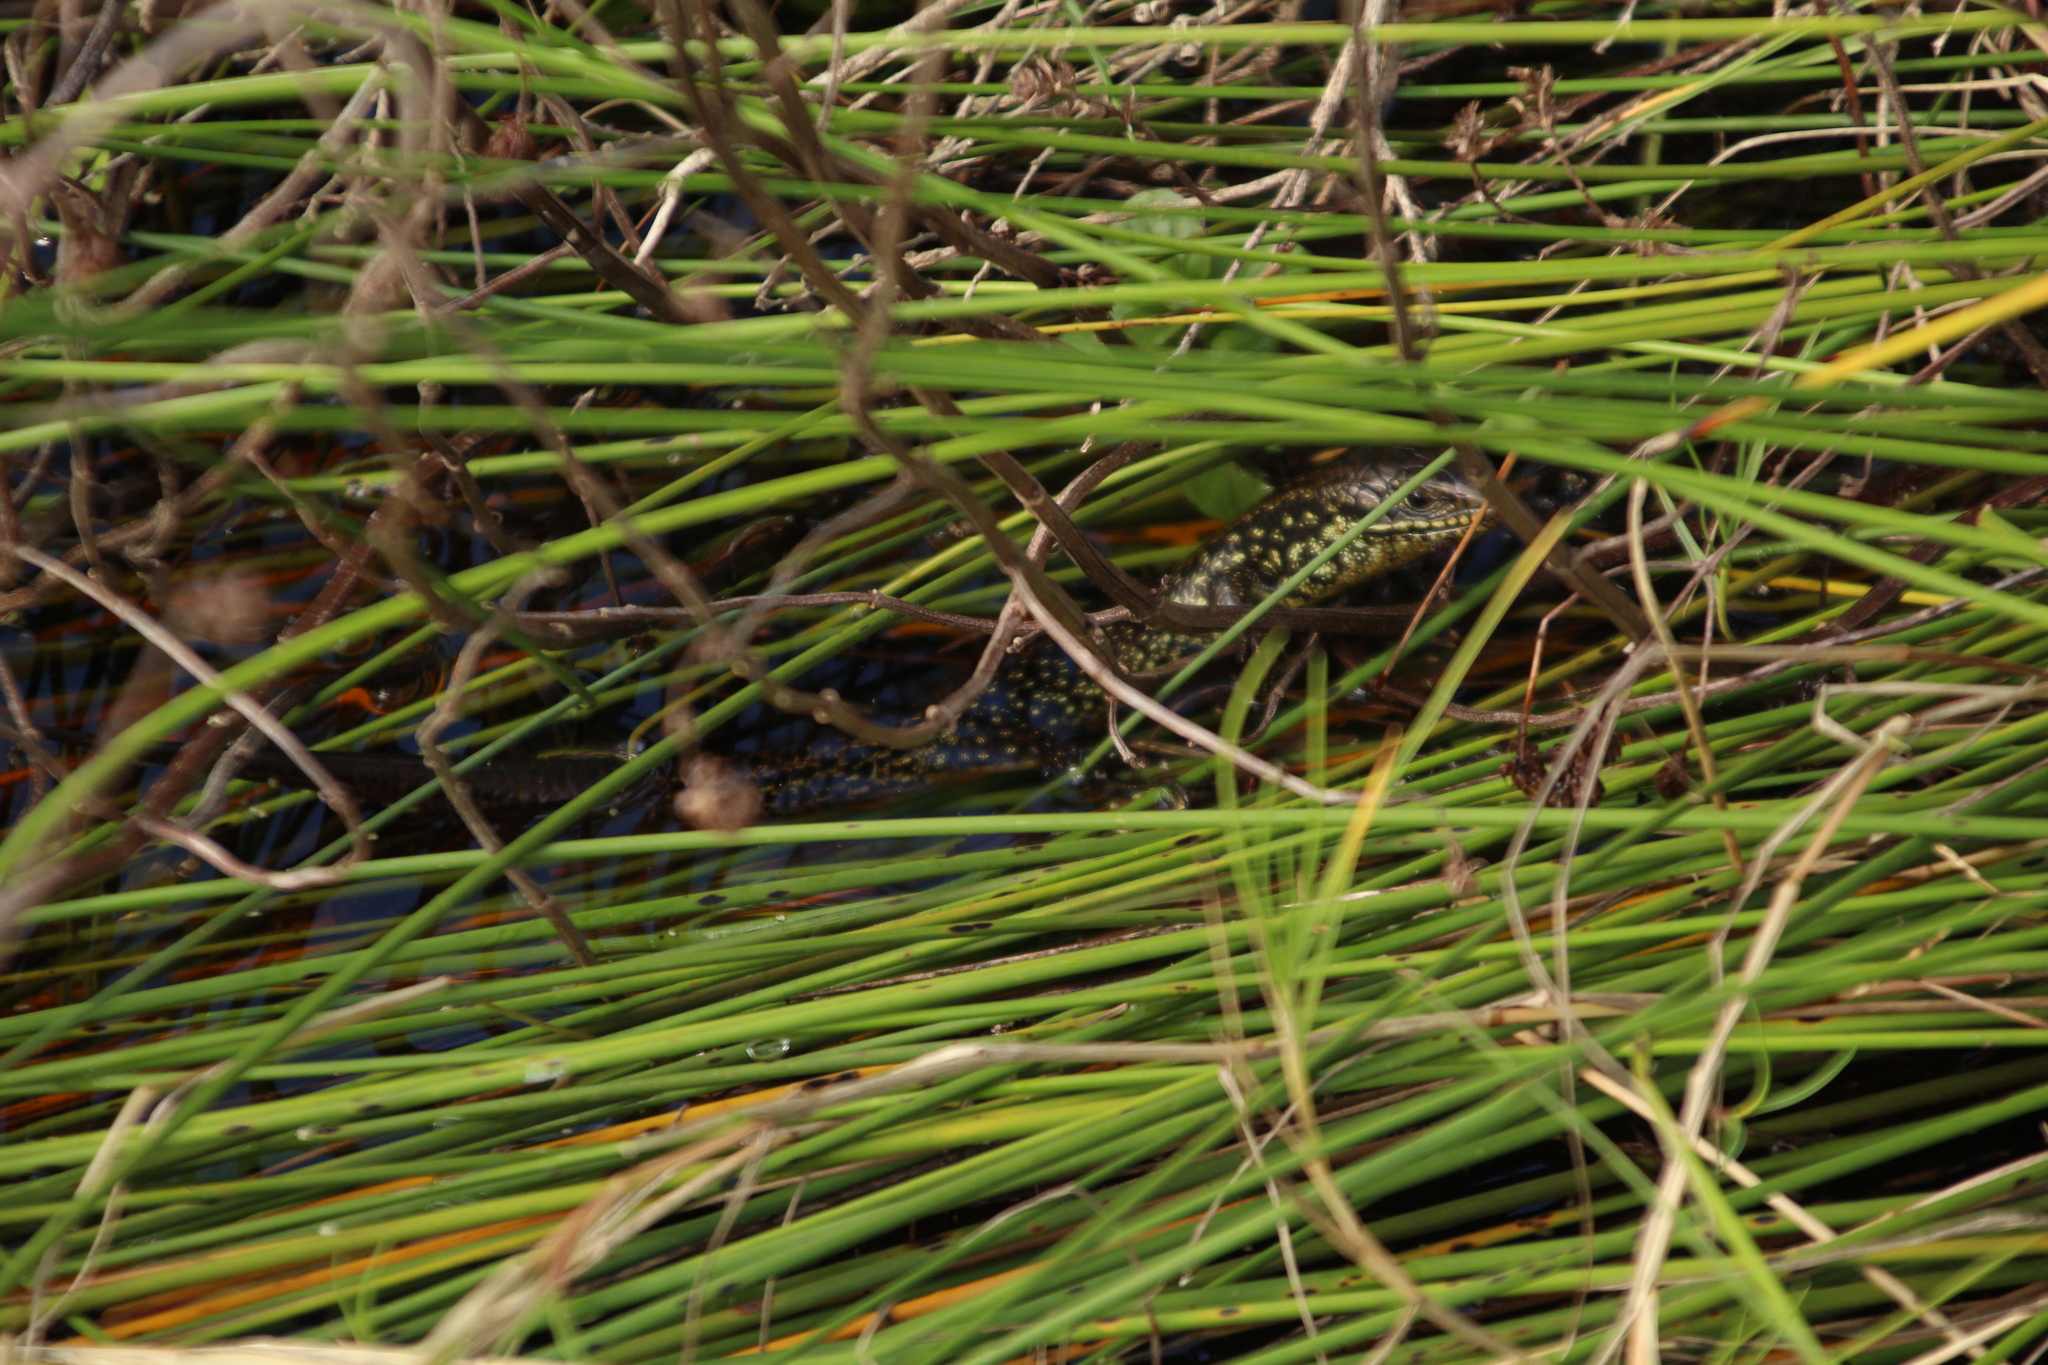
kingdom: Animalia
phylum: Chordata
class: Squamata
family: Scincidae
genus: Lissolepis
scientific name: Lissolepis luctuosa
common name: Western glossy swamp skink
